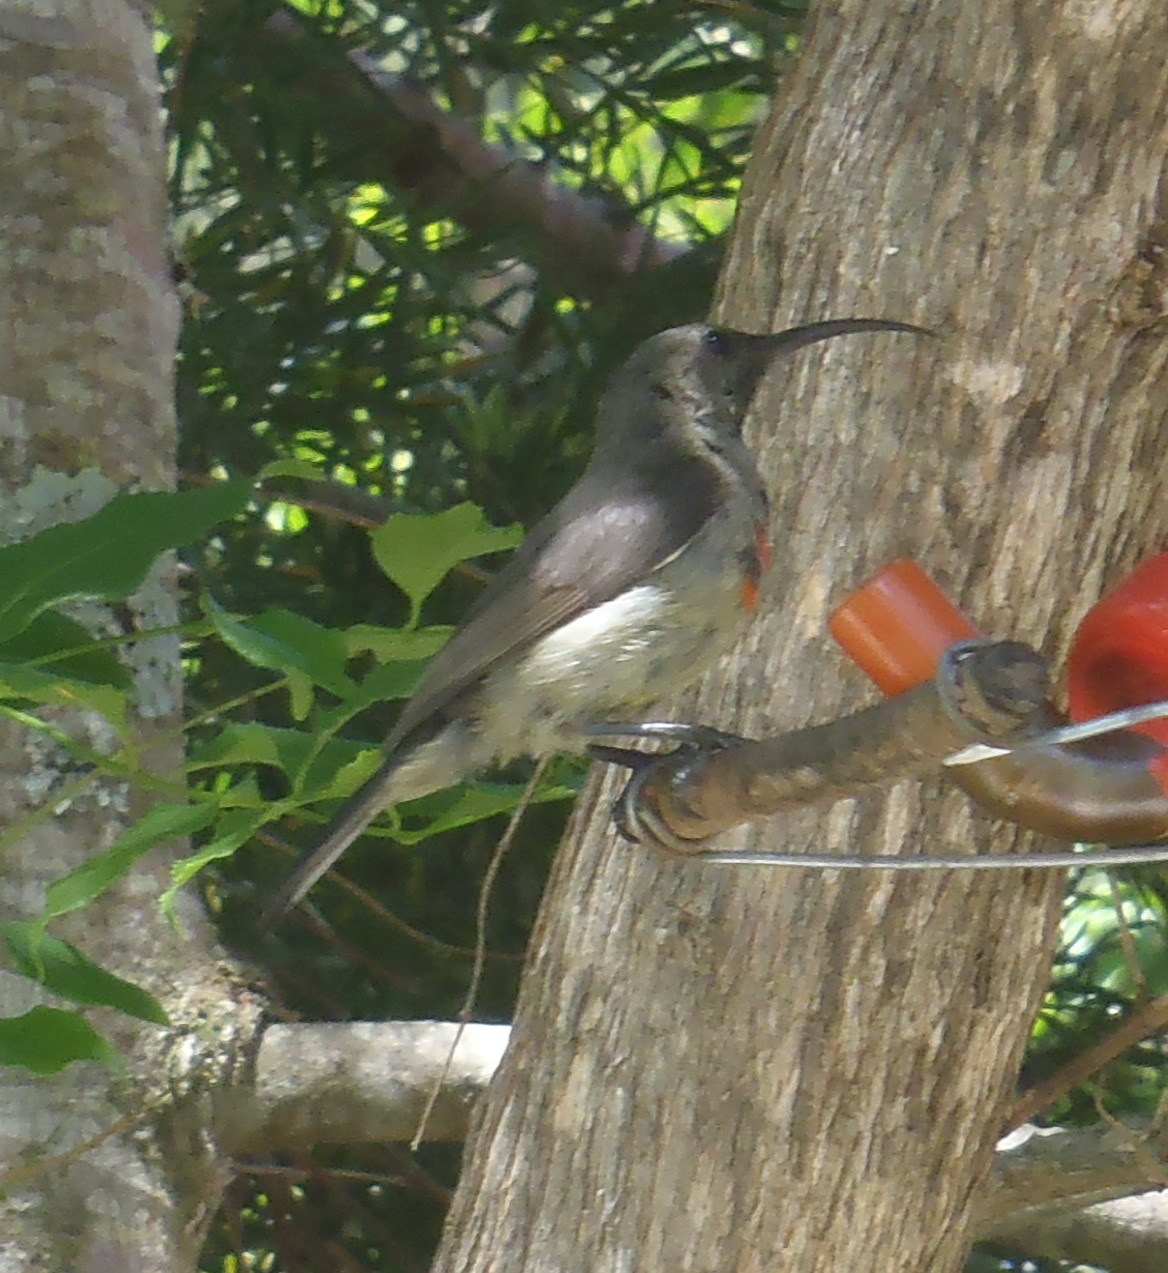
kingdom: Animalia
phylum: Chordata
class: Aves
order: Passeriformes
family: Nectariniidae
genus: Cinnyris
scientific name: Cinnyris afer
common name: Greater double-collared sunbird
